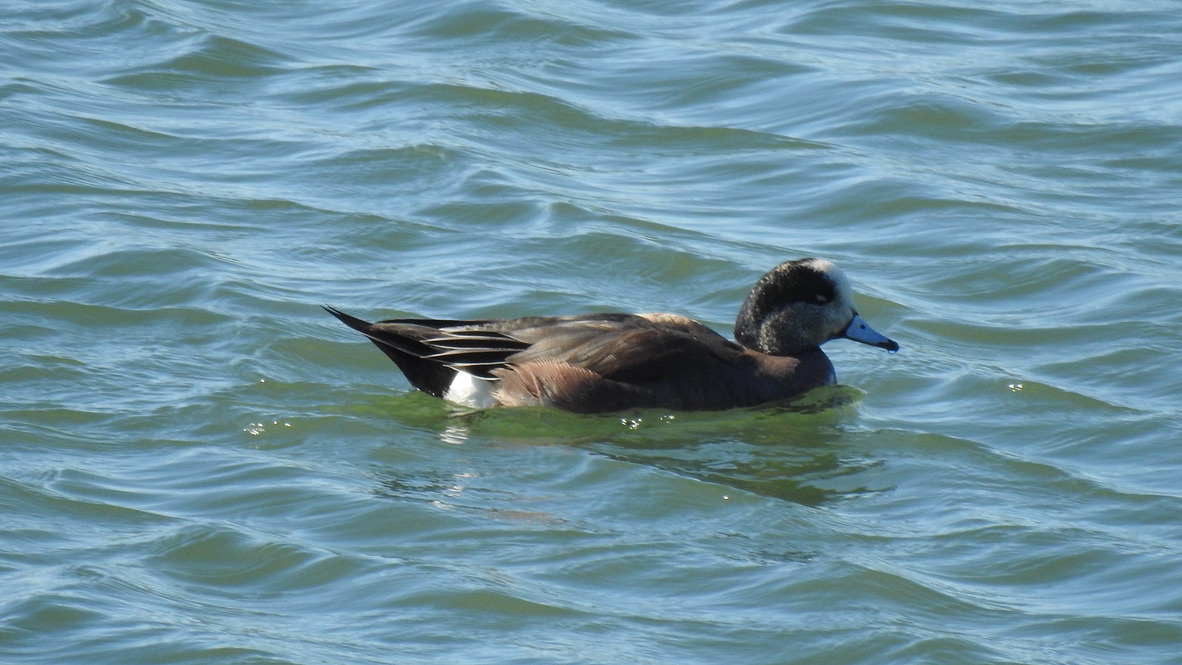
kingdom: Animalia
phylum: Chordata
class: Aves
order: Anseriformes
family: Anatidae
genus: Mareca
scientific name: Mareca americana
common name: American wigeon
